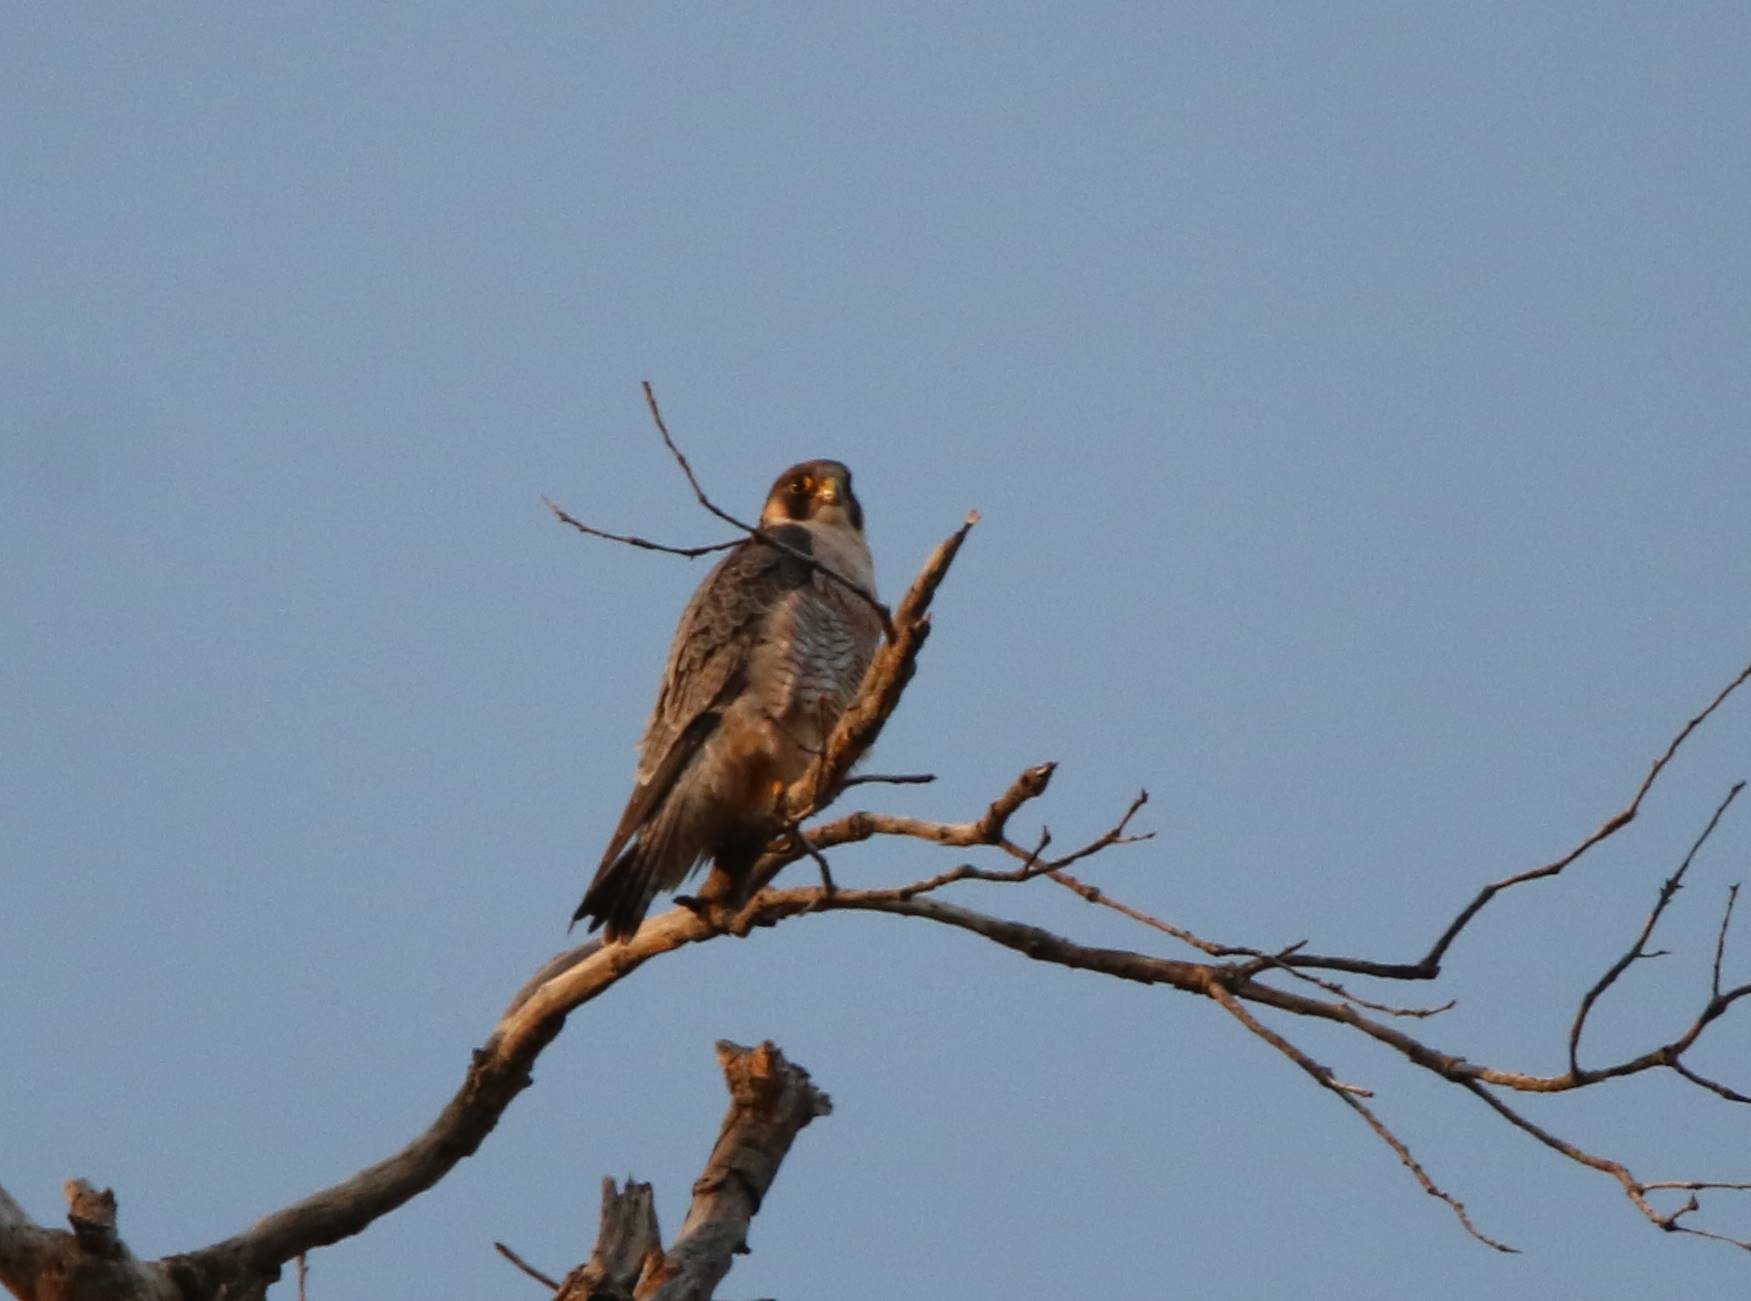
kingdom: Animalia
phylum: Chordata
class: Aves
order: Falconiformes
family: Falconidae
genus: Falco
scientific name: Falco peregrinus
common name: Peregrine falcon
